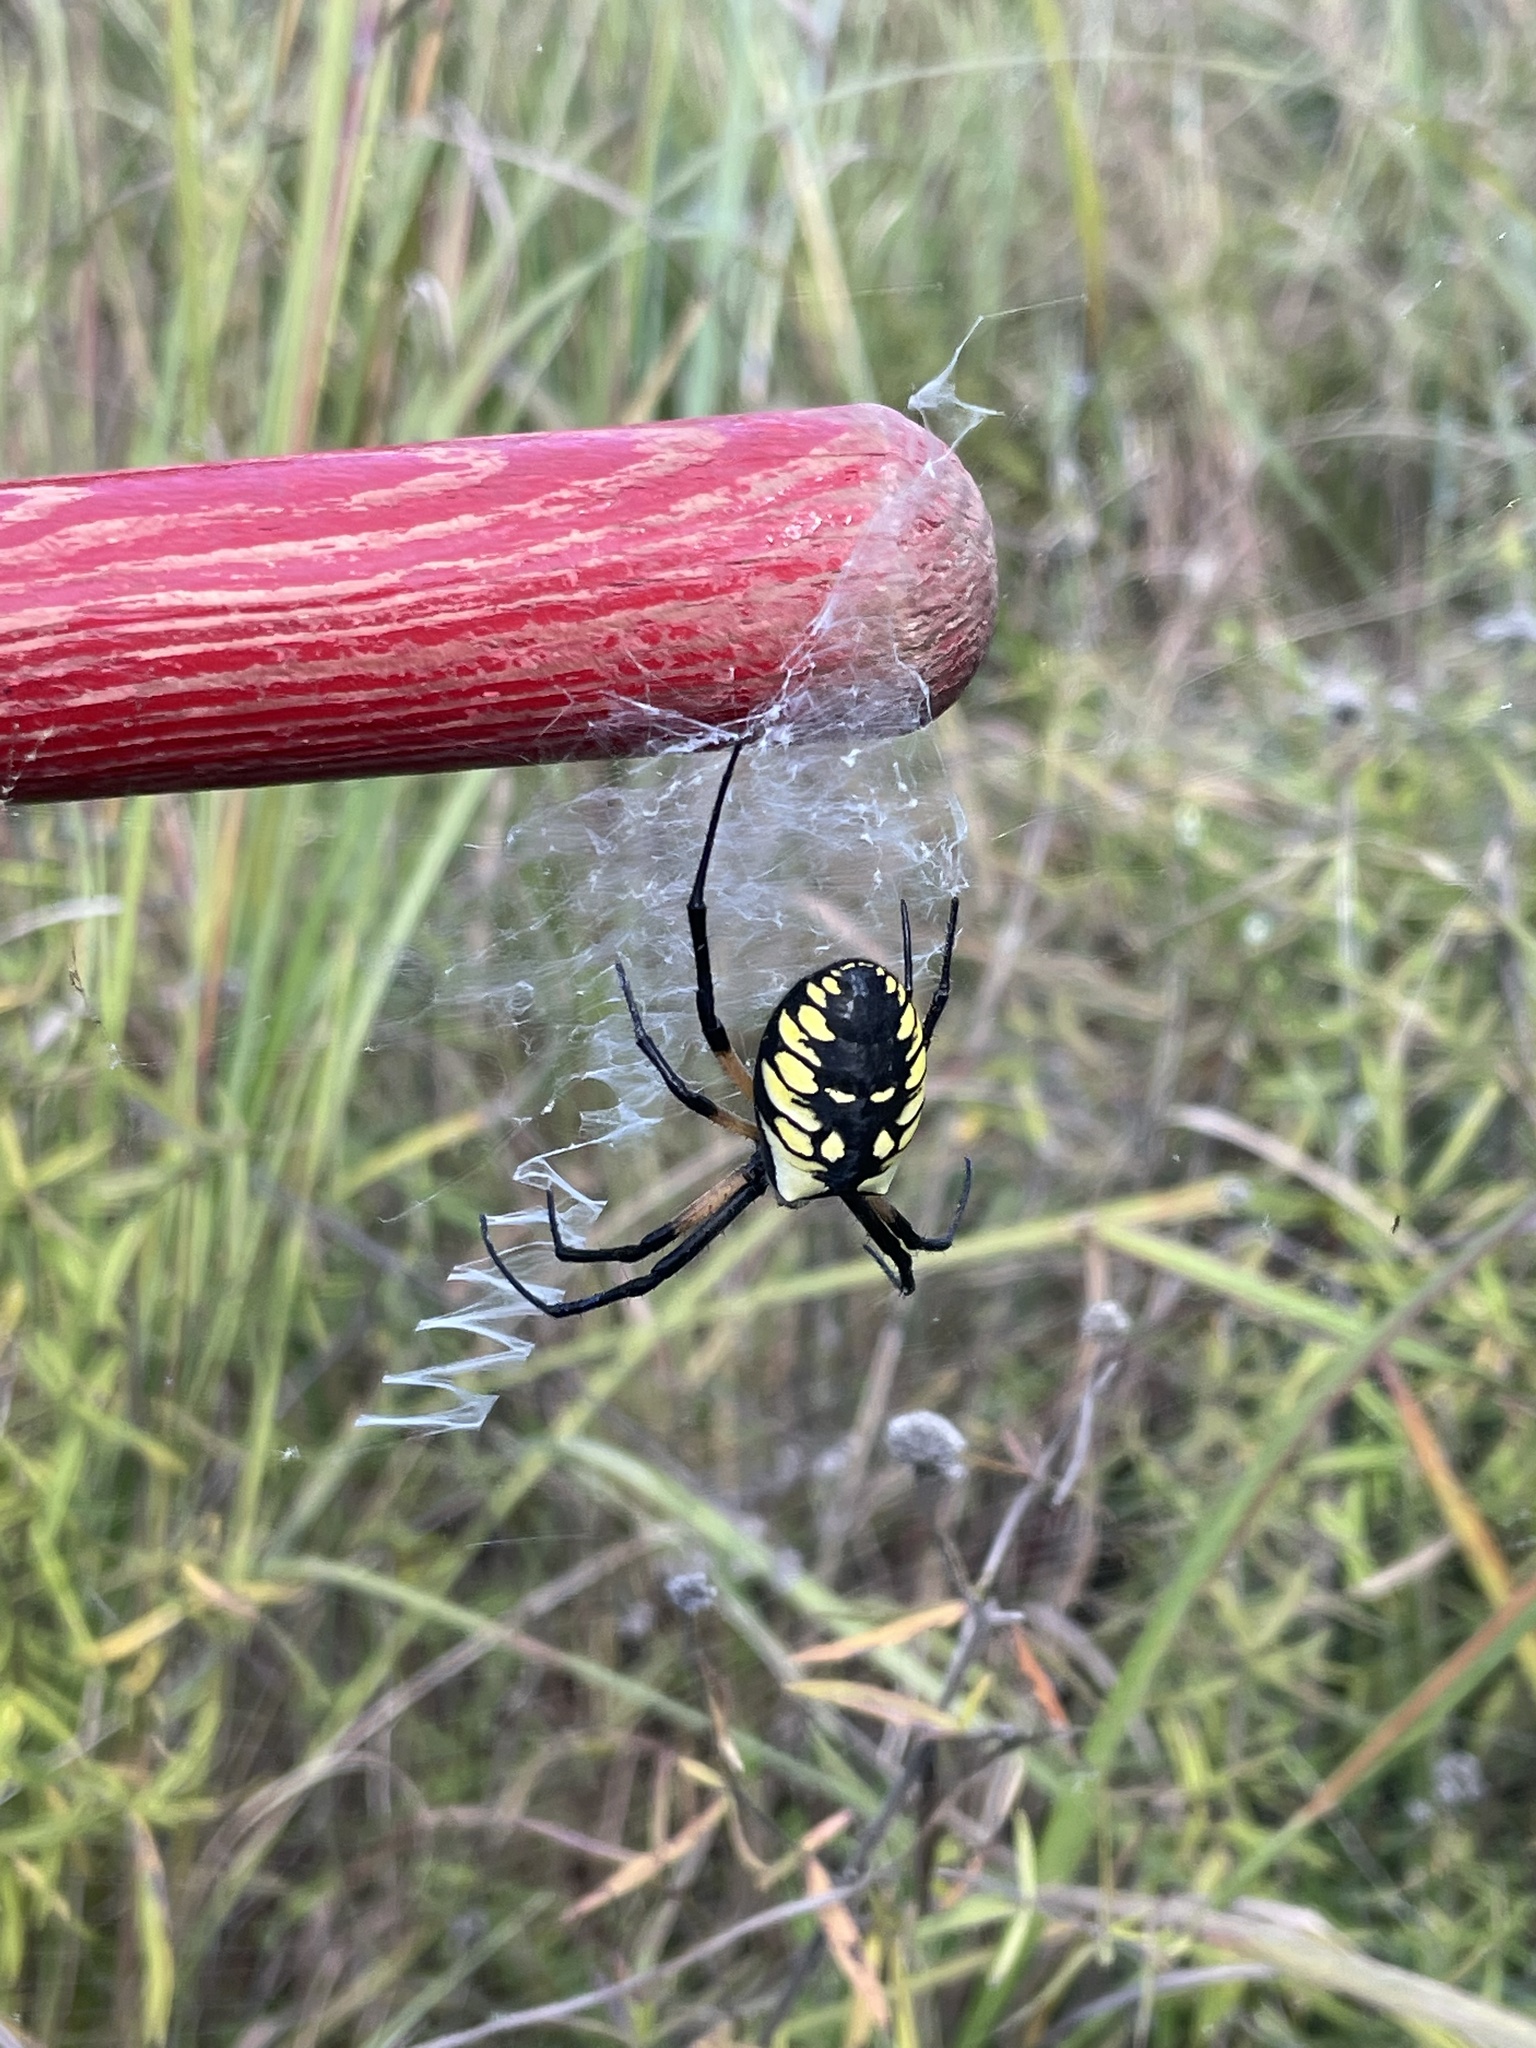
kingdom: Animalia
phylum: Arthropoda
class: Arachnida
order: Araneae
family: Araneidae
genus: Argiope
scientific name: Argiope aurantia
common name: Orb weavers
